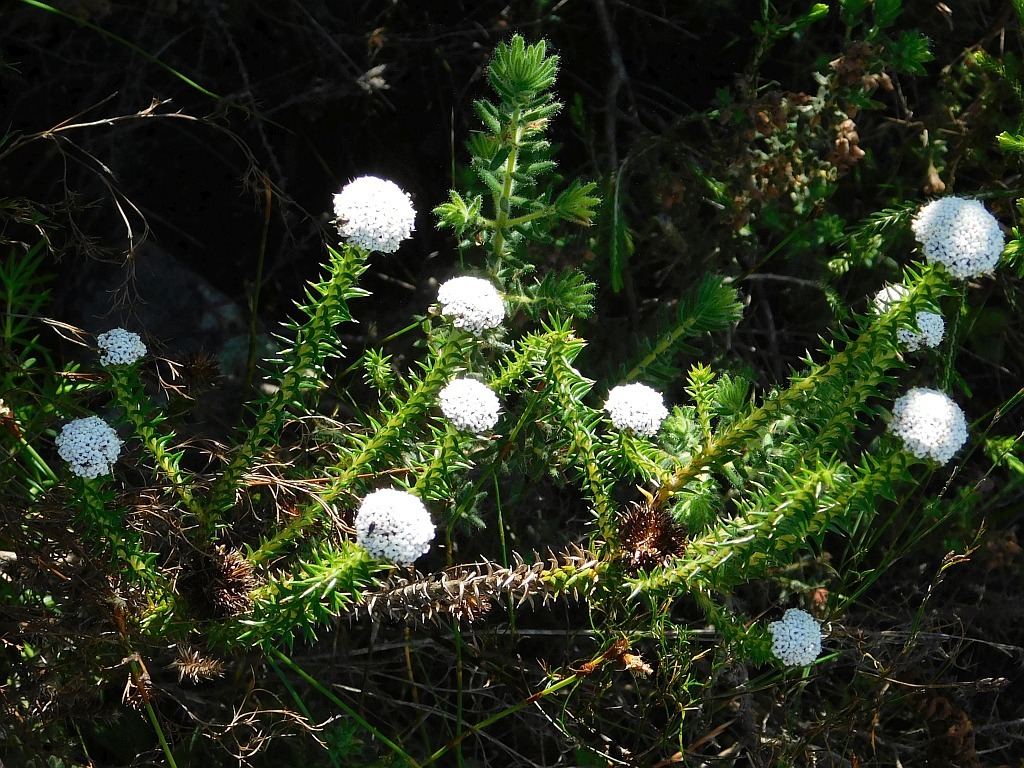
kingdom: Plantae
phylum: Tracheophyta
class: Magnoliopsida
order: Asterales
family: Asteraceae
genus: Stoebe
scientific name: Stoebe aethiopica
